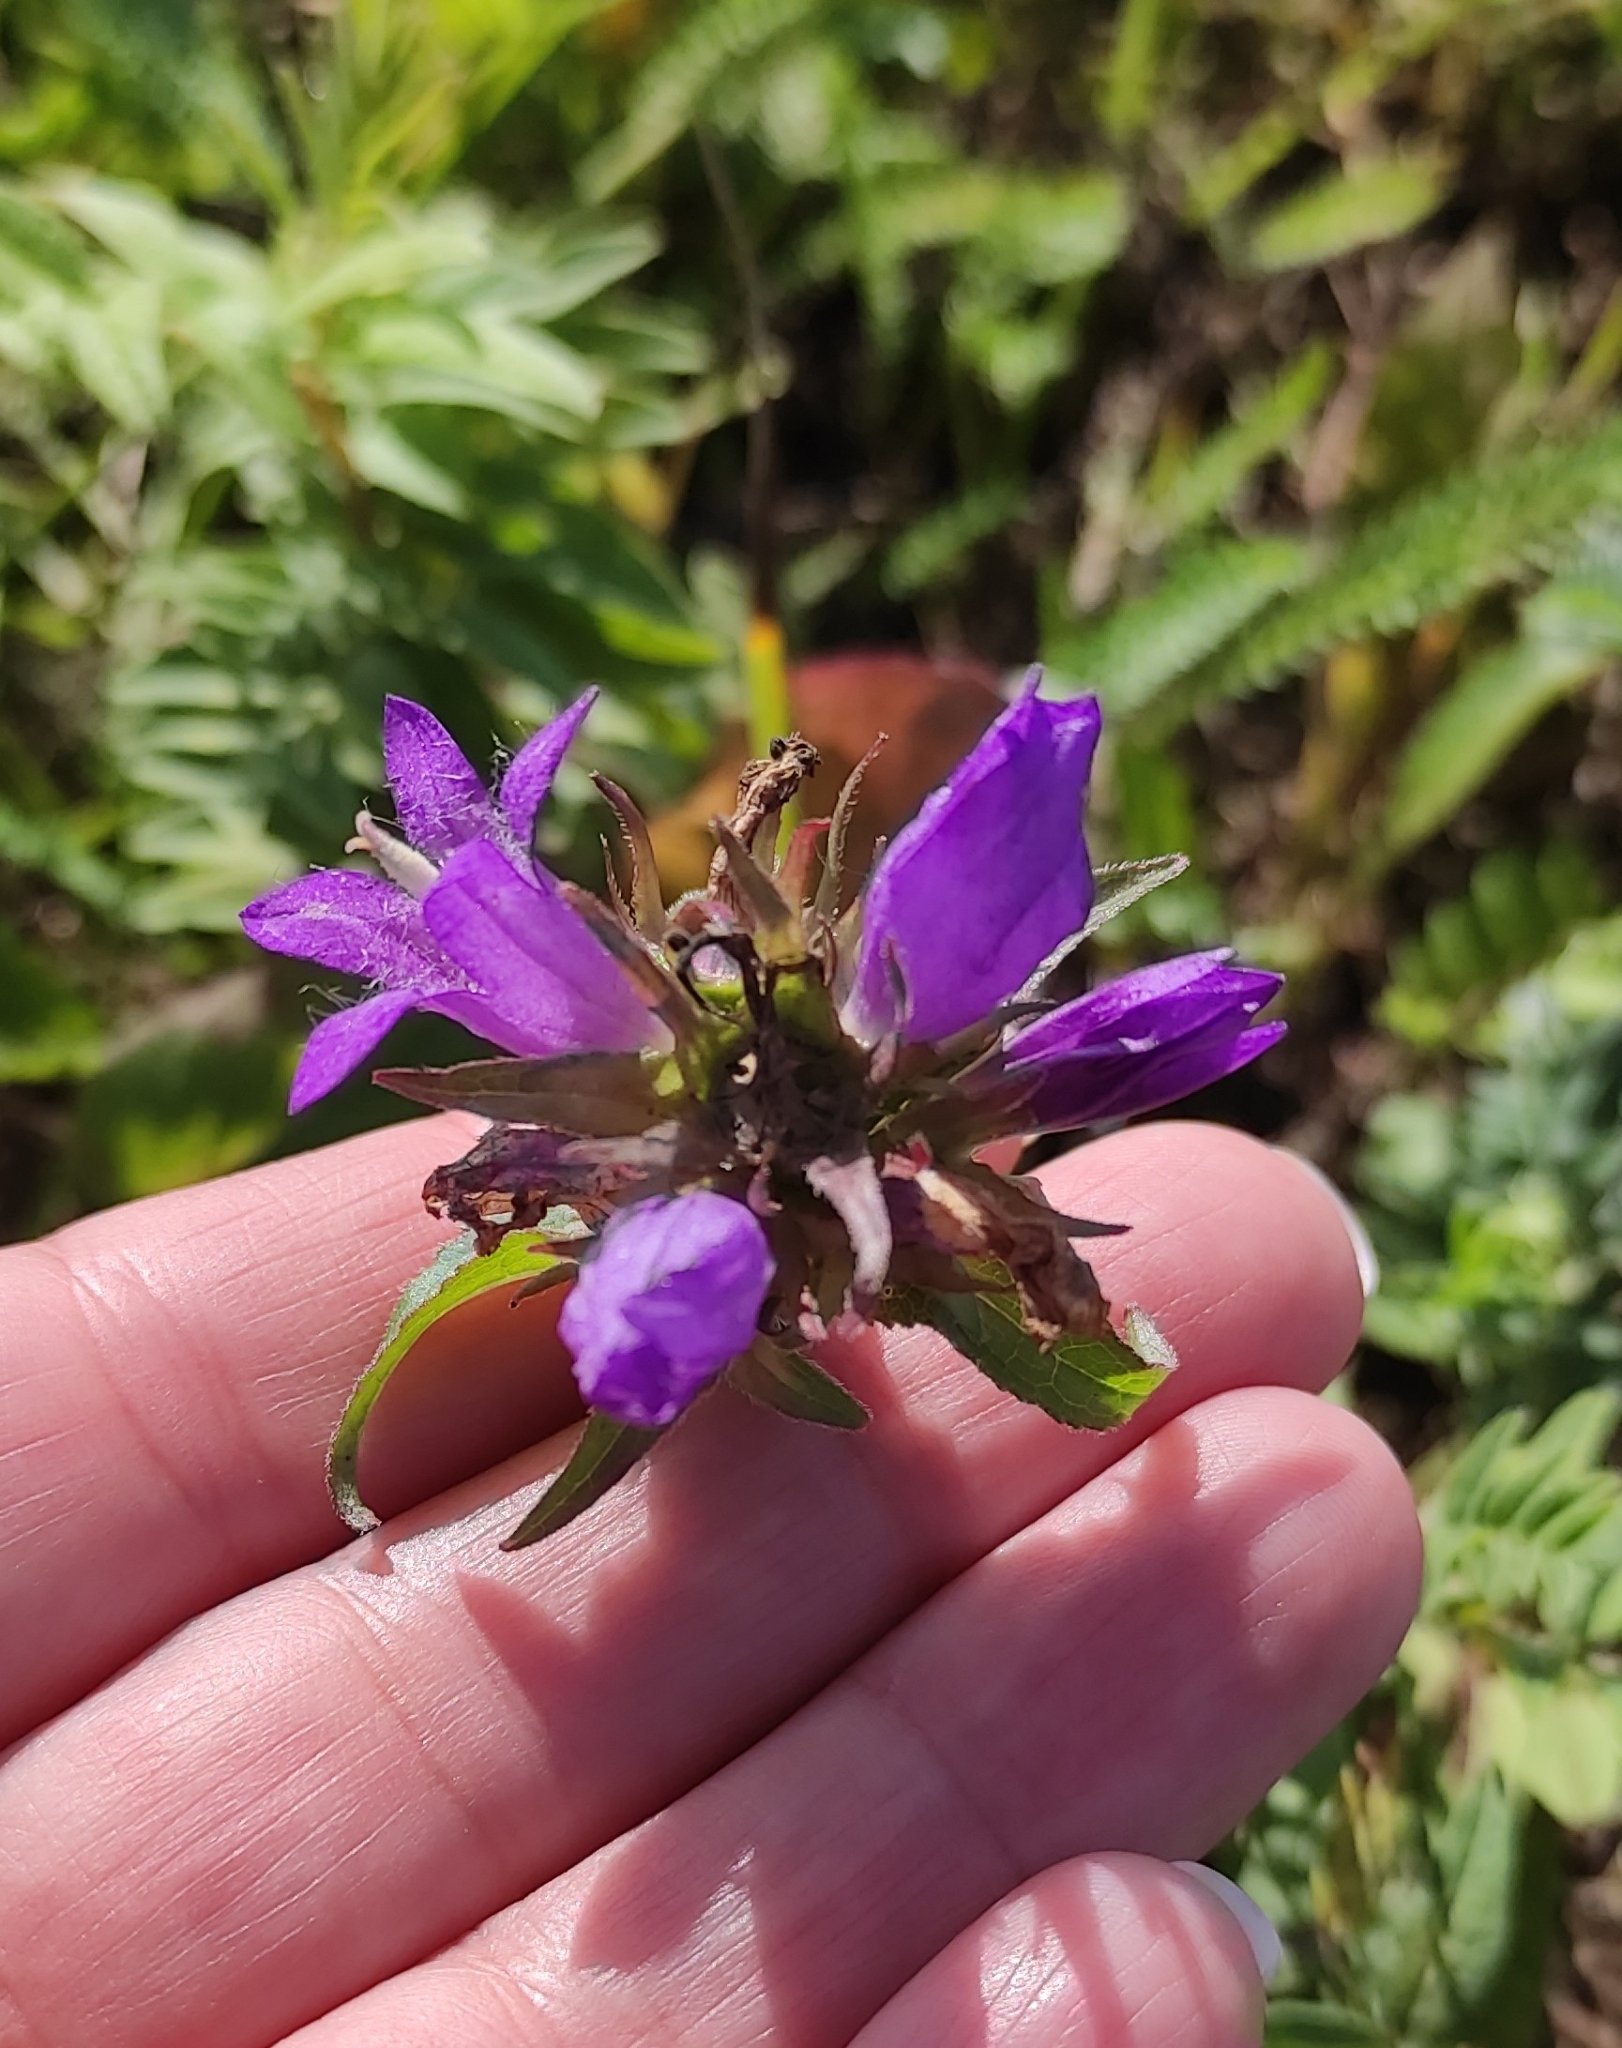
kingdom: Plantae
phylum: Tracheophyta
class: Magnoliopsida
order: Asterales
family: Campanulaceae
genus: Campanula
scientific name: Campanula glomerata
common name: Clustered bellflower
